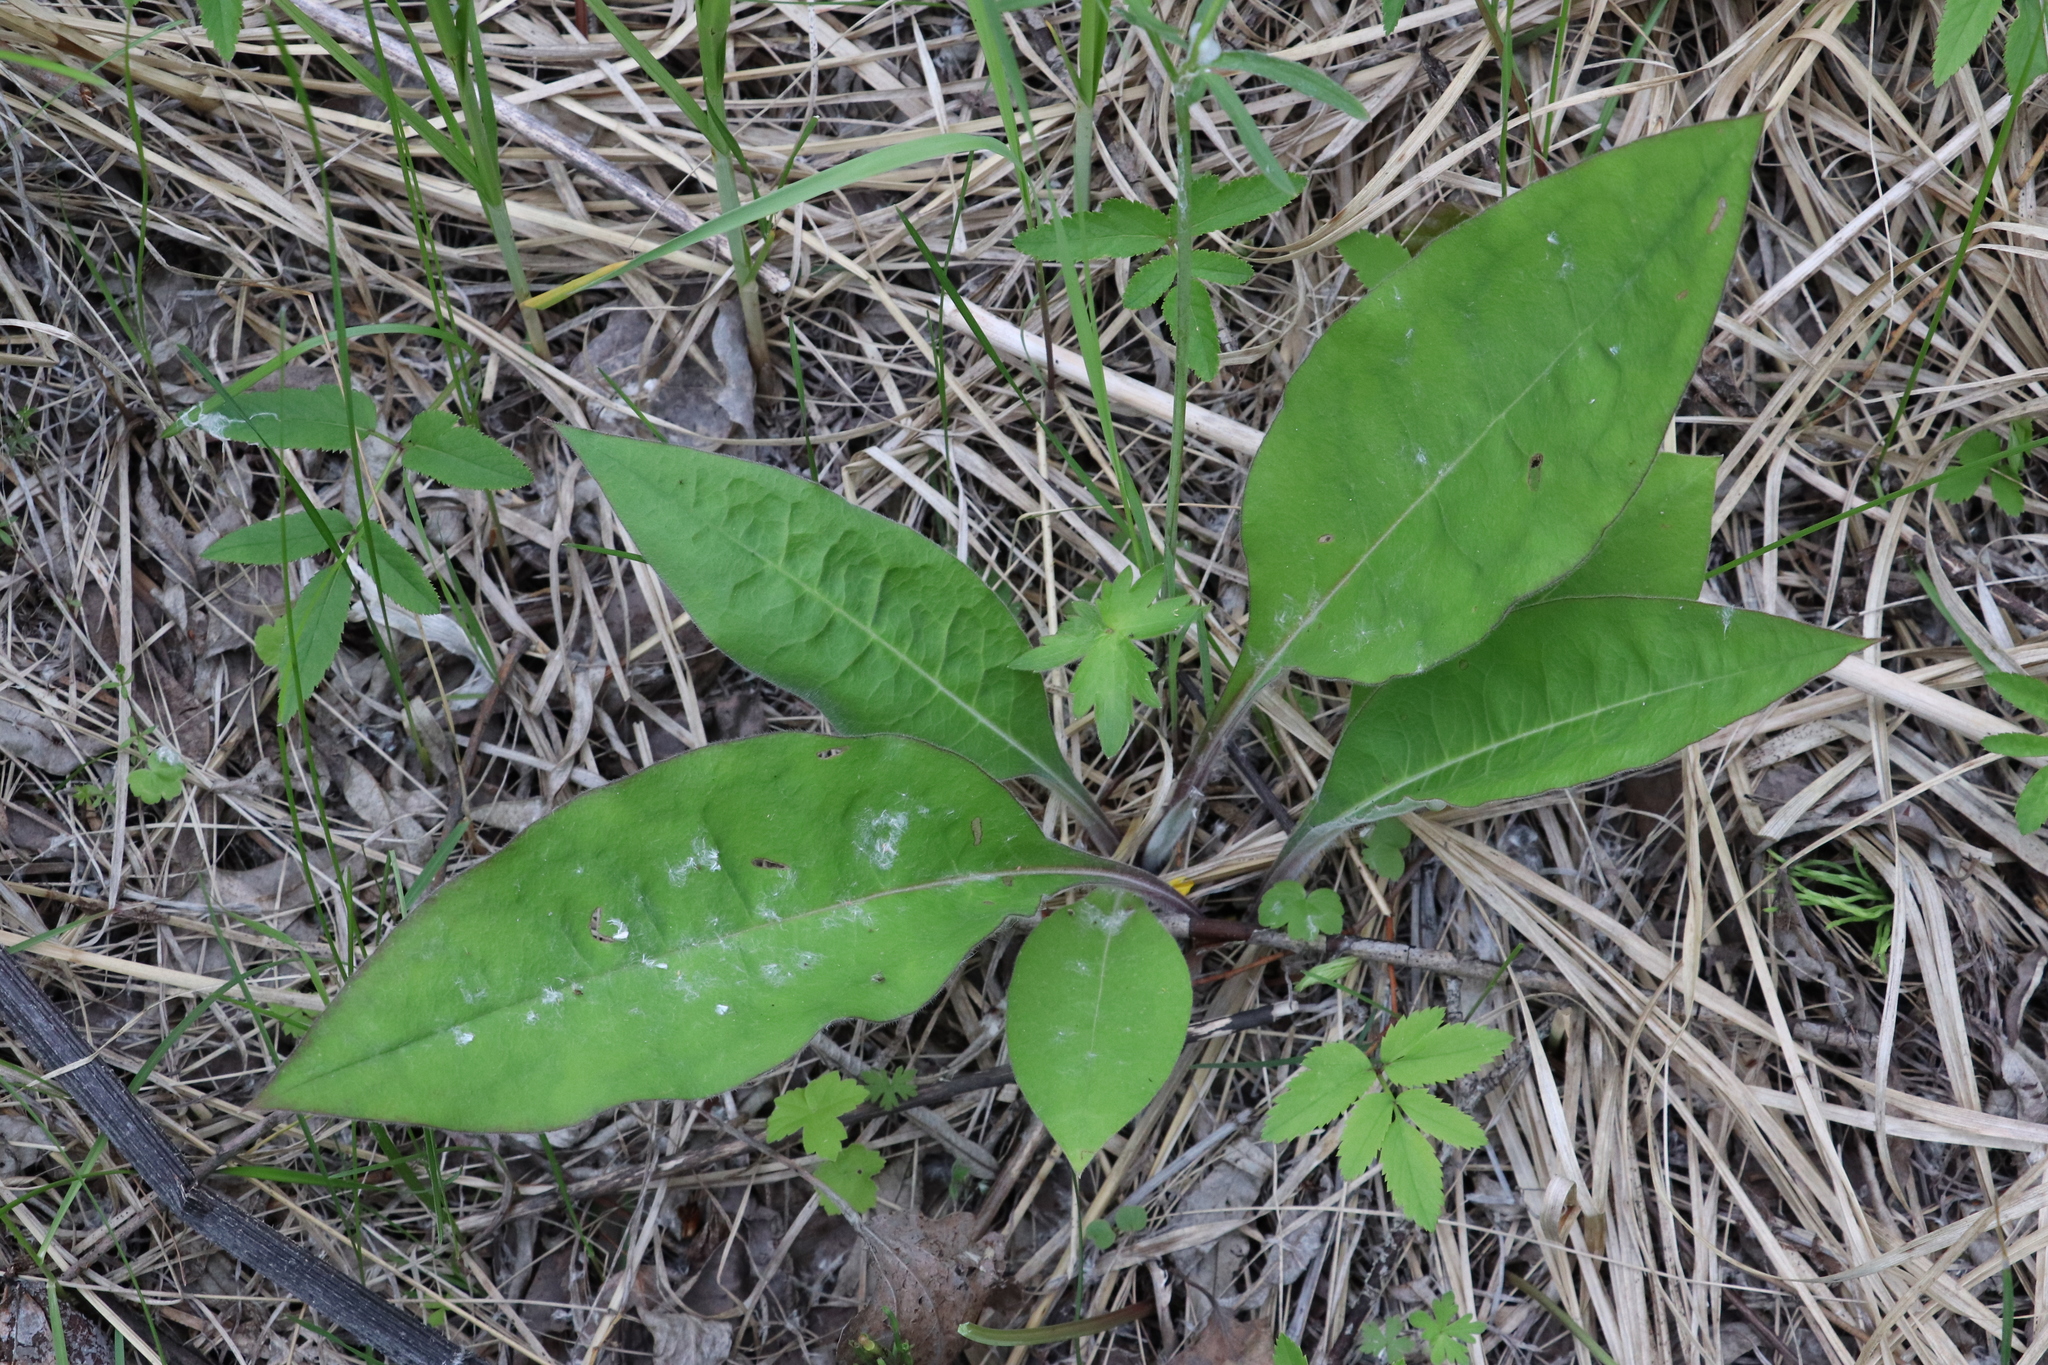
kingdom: Plantae
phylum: Tracheophyta
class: Magnoliopsida
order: Boraginales
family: Boraginaceae
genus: Pulmonaria
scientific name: Pulmonaria mollis
